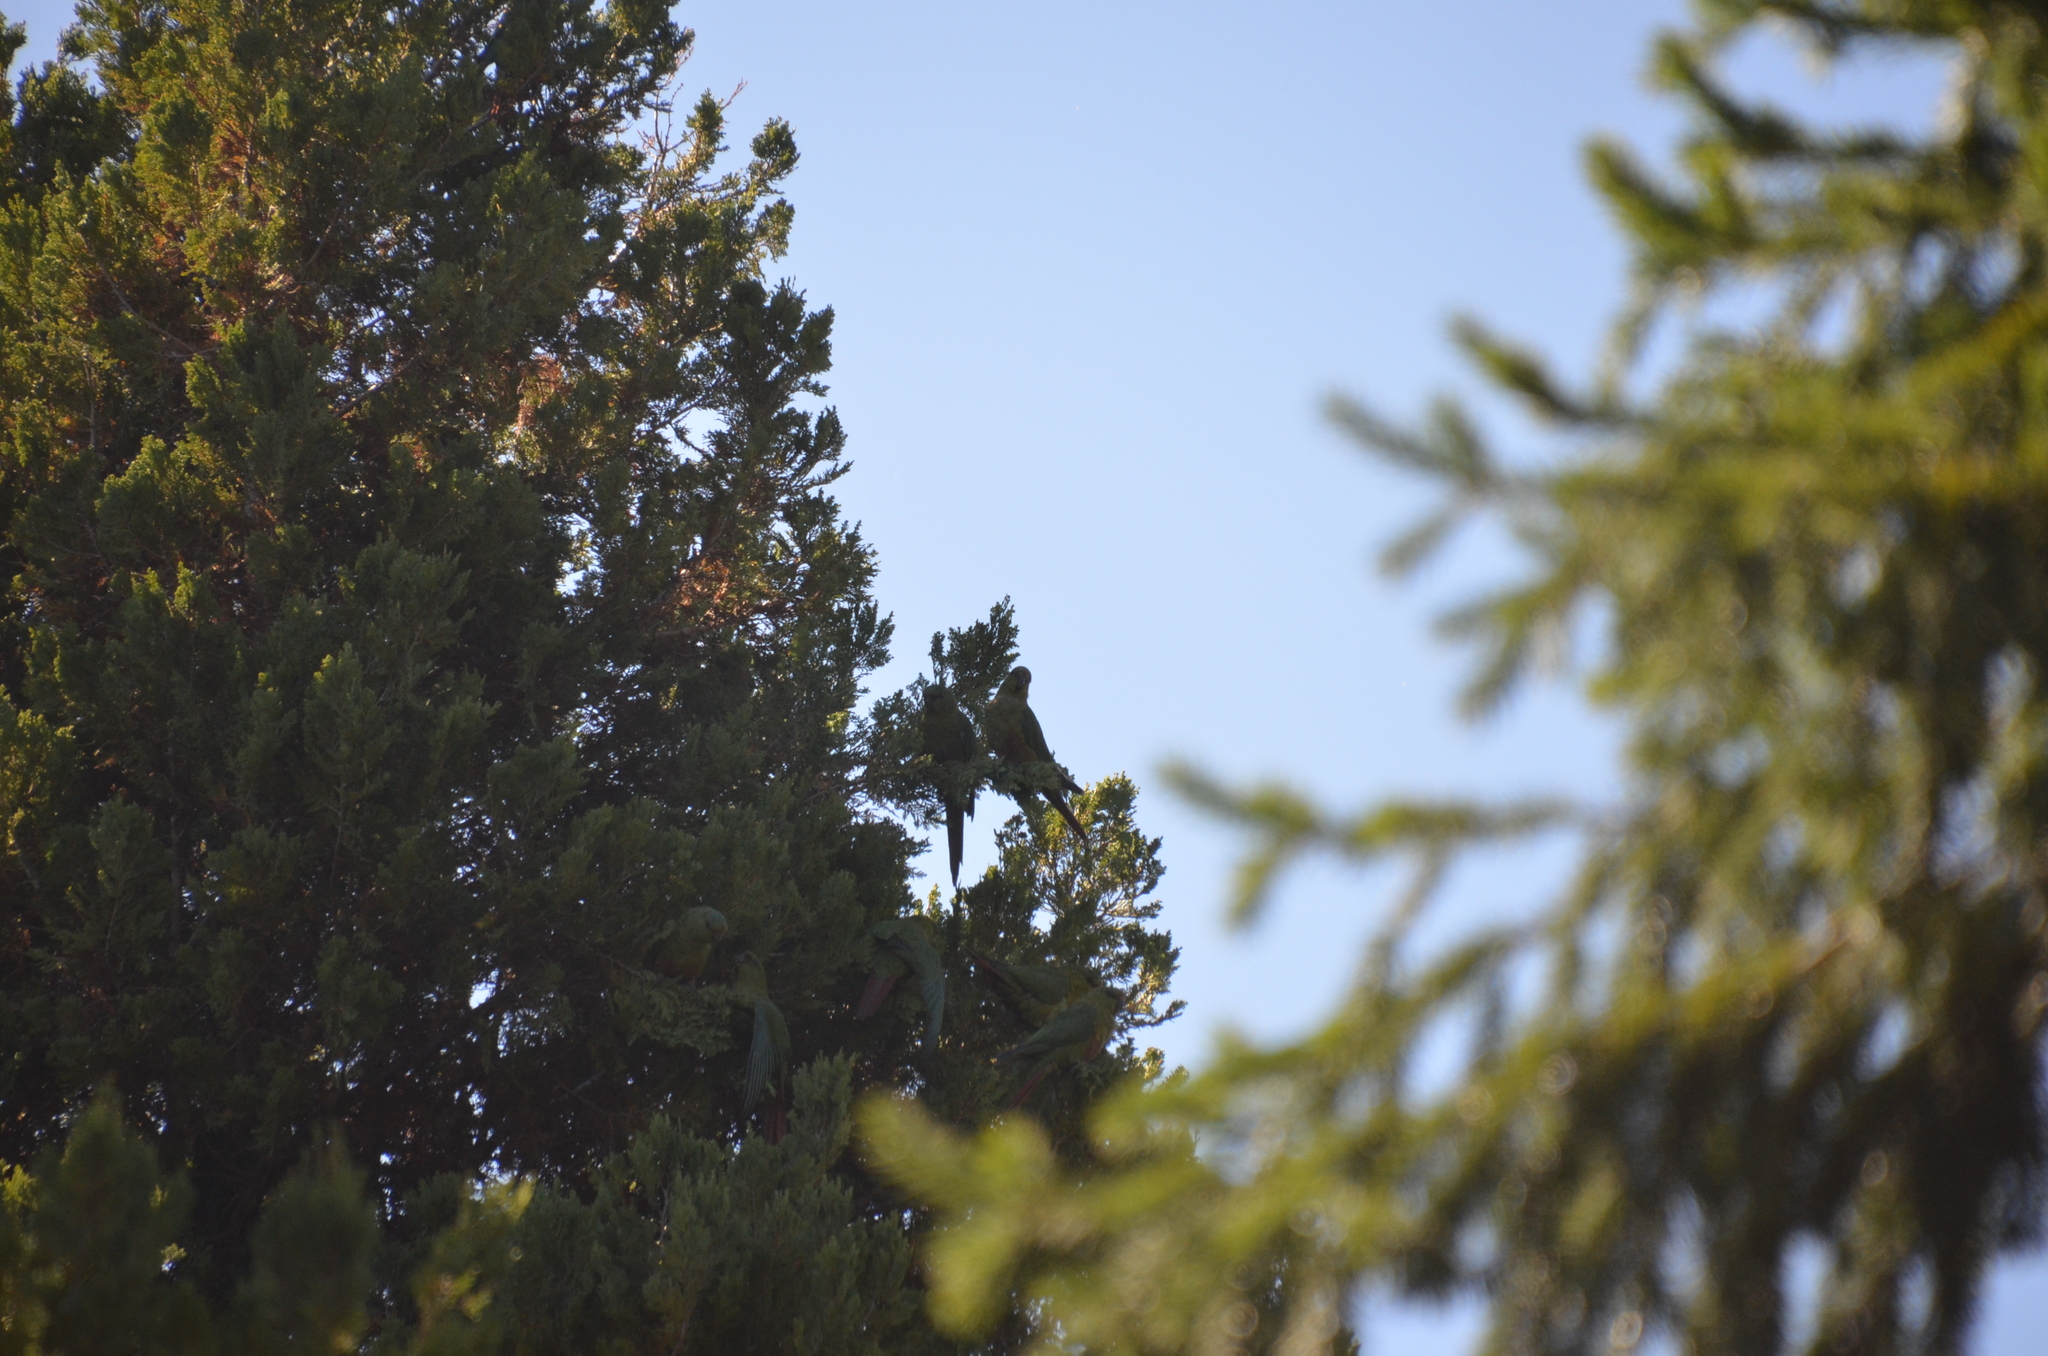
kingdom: Animalia
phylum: Chordata
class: Aves
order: Psittaciformes
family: Psittacidae
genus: Enicognathus
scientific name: Enicognathus ferrugineus
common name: Austral parakeet
